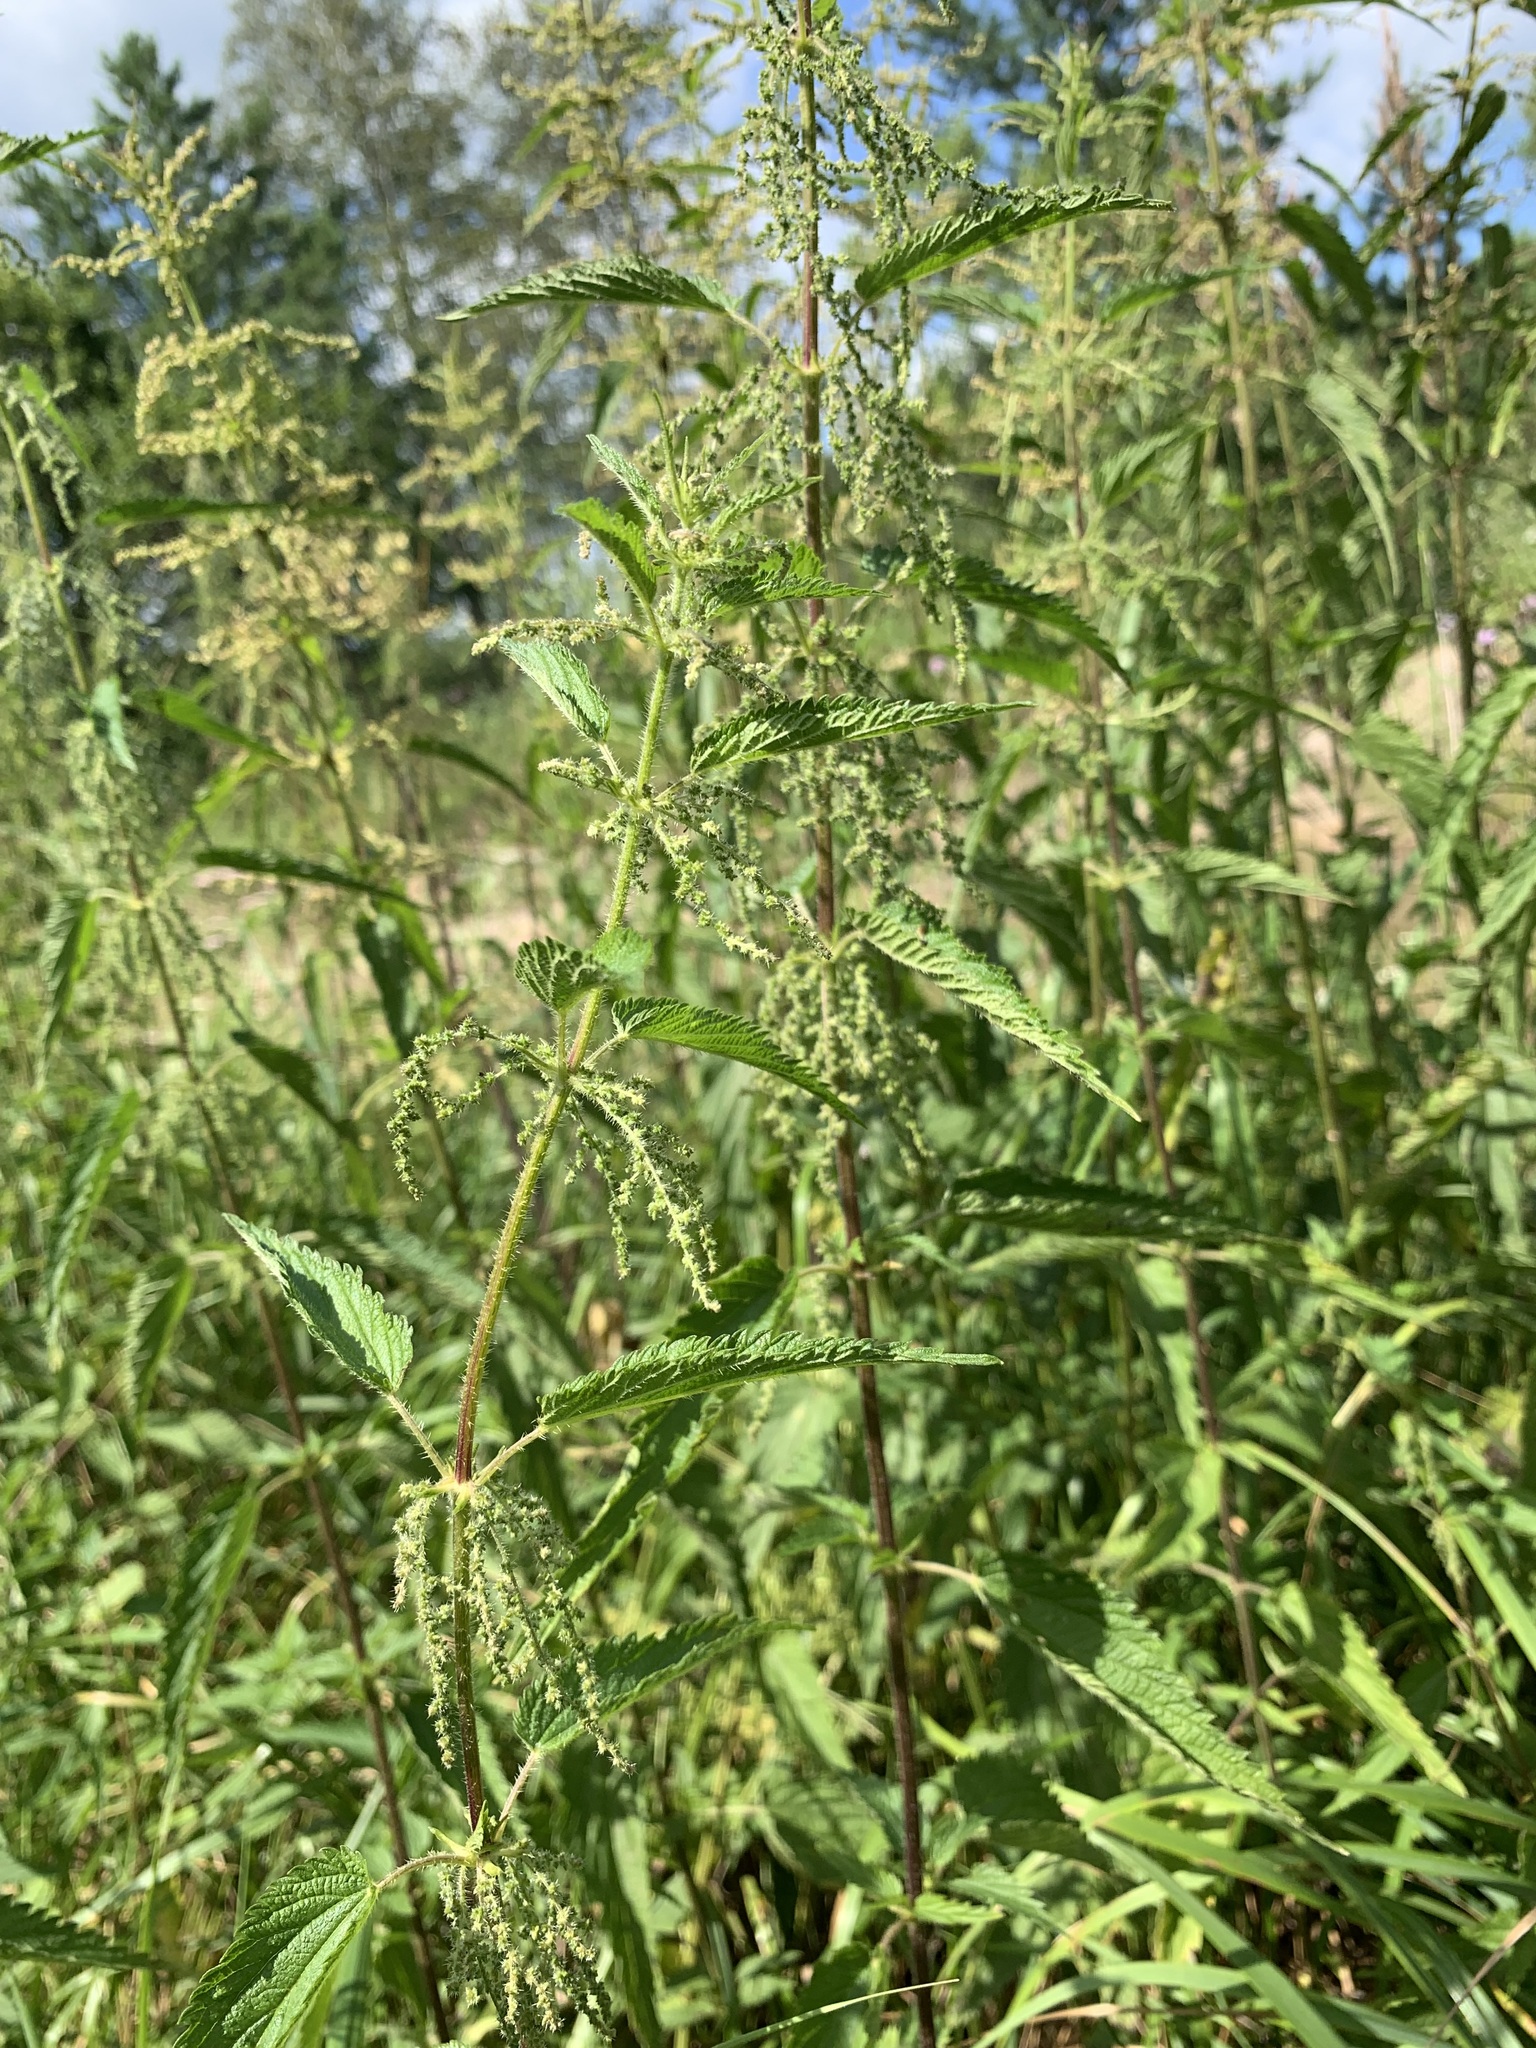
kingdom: Plantae
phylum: Tracheophyta
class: Magnoliopsida
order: Rosales
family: Urticaceae
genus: Urtica
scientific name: Urtica dioica
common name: Common nettle
